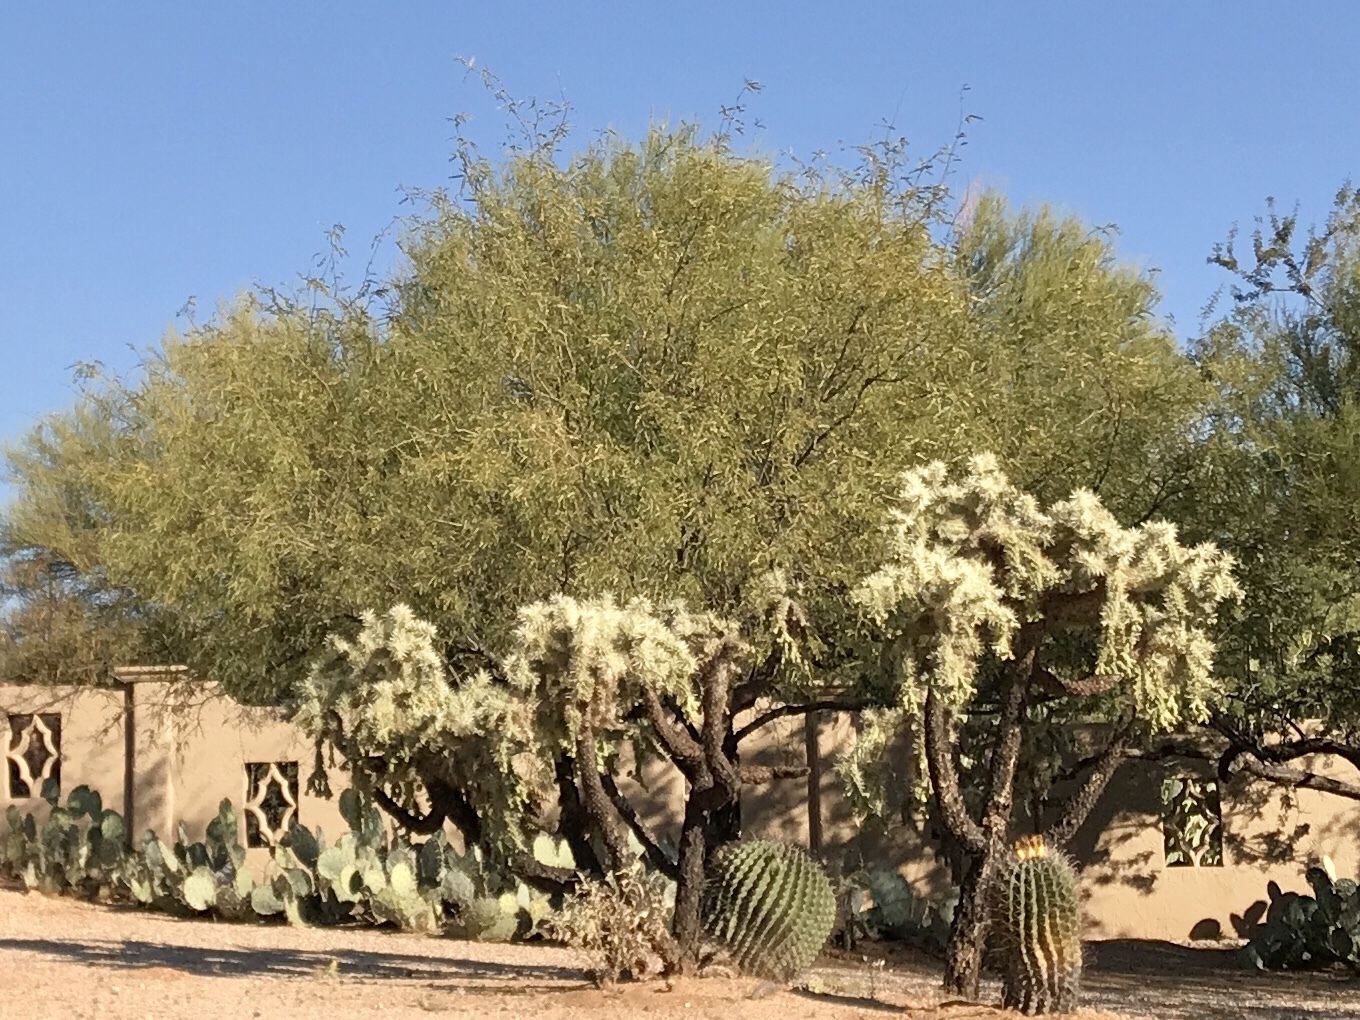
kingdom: Plantae
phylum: Tracheophyta
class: Magnoliopsida
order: Caryophyllales
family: Cactaceae
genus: Cylindropuntia
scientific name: Cylindropuntia fulgida
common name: Jumping cholla
